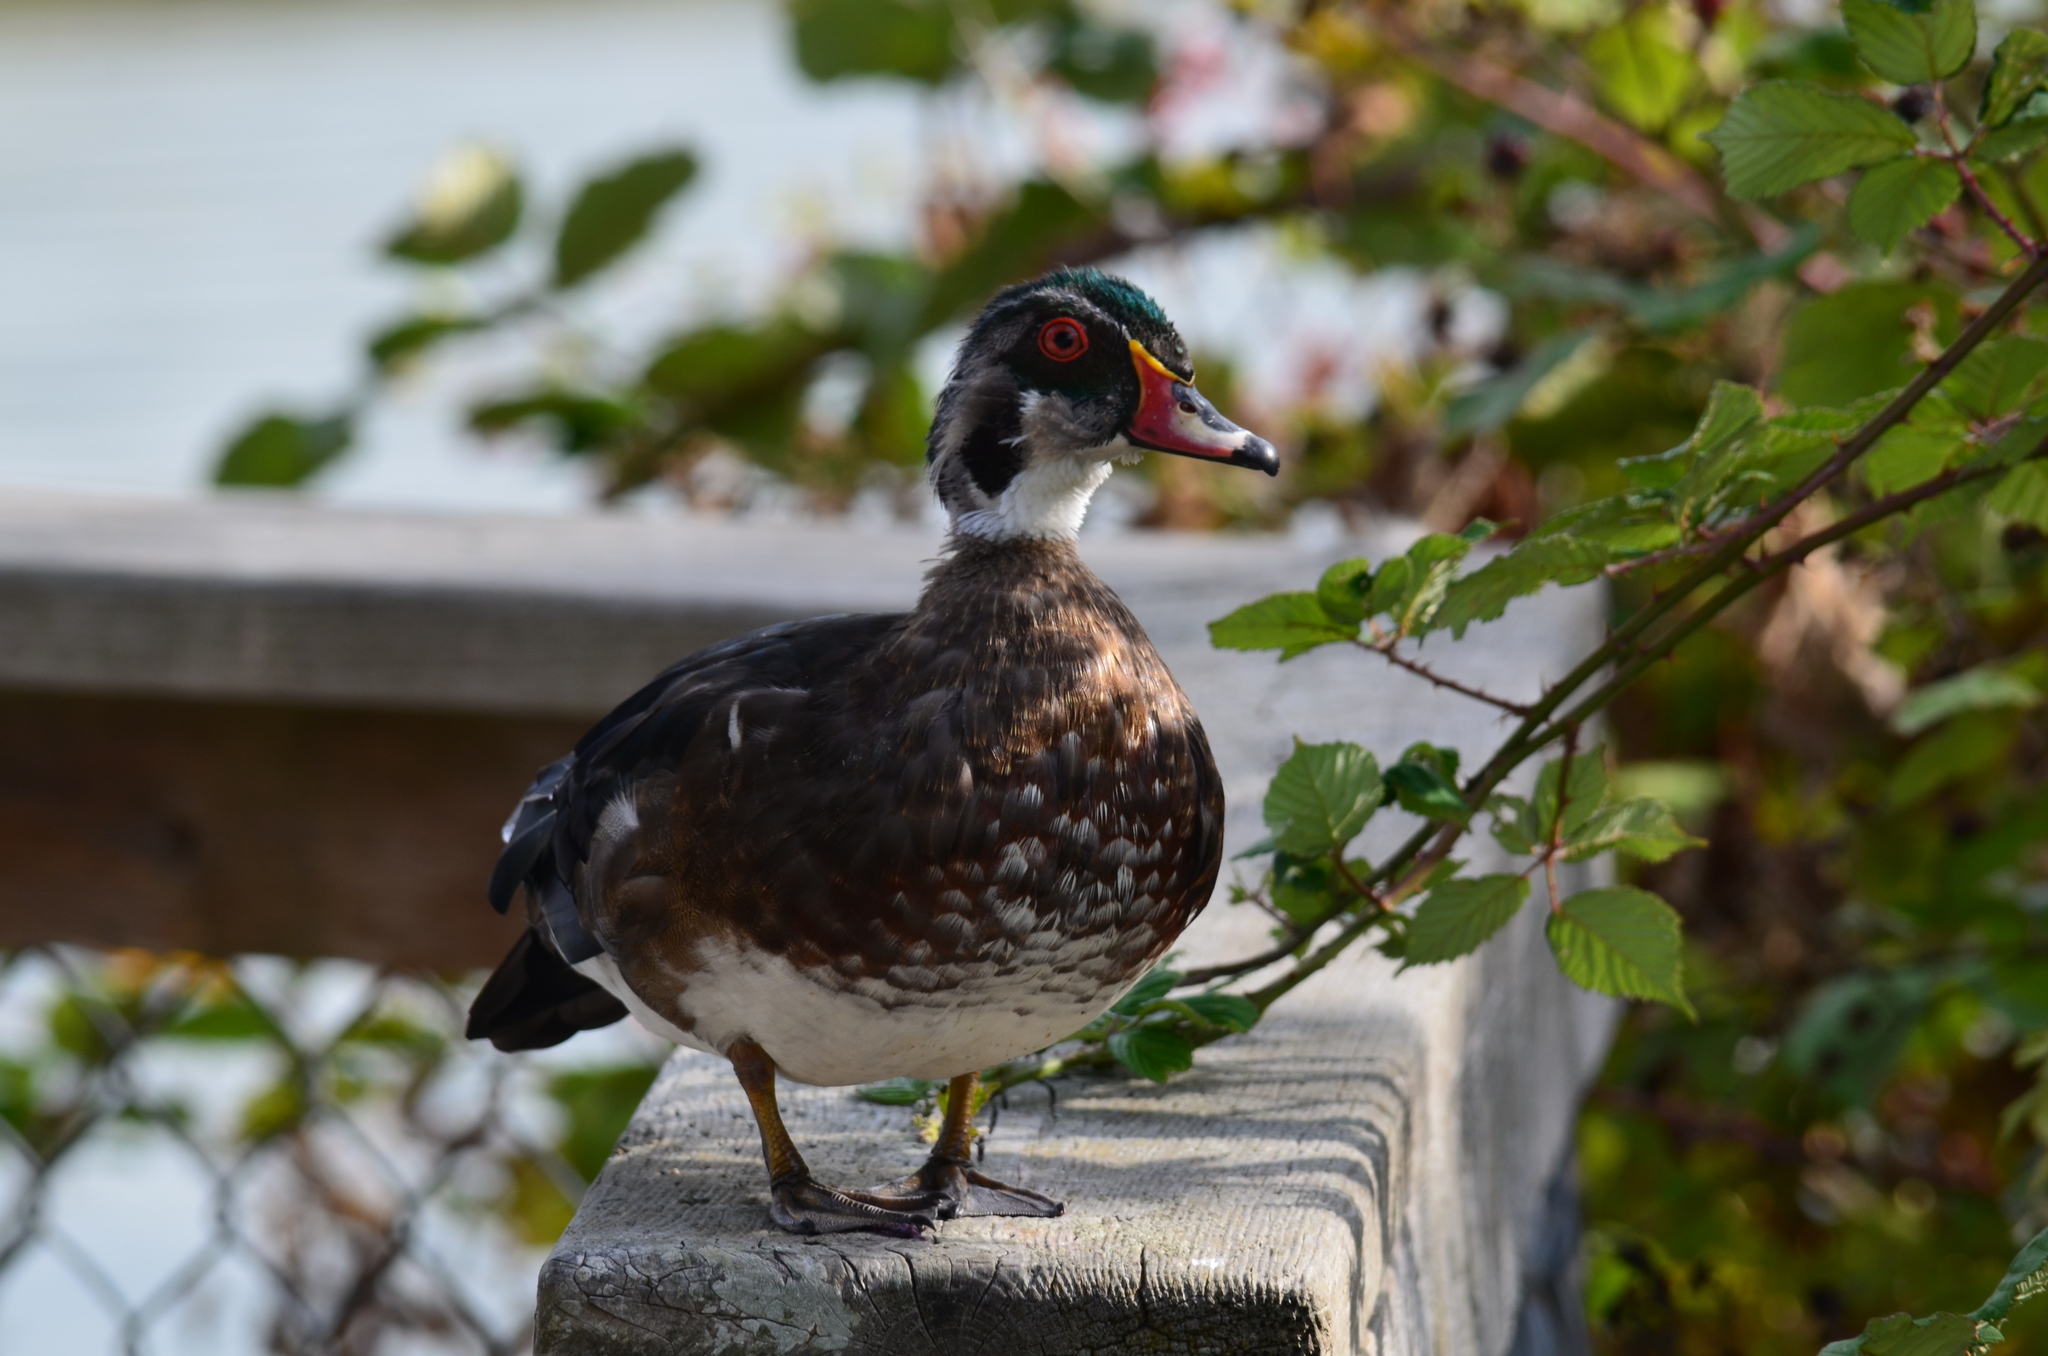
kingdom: Animalia
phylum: Chordata
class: Aves
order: Anseriformes
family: Anatidae
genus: Aix
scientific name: Aix sponsa
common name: Wood duck
